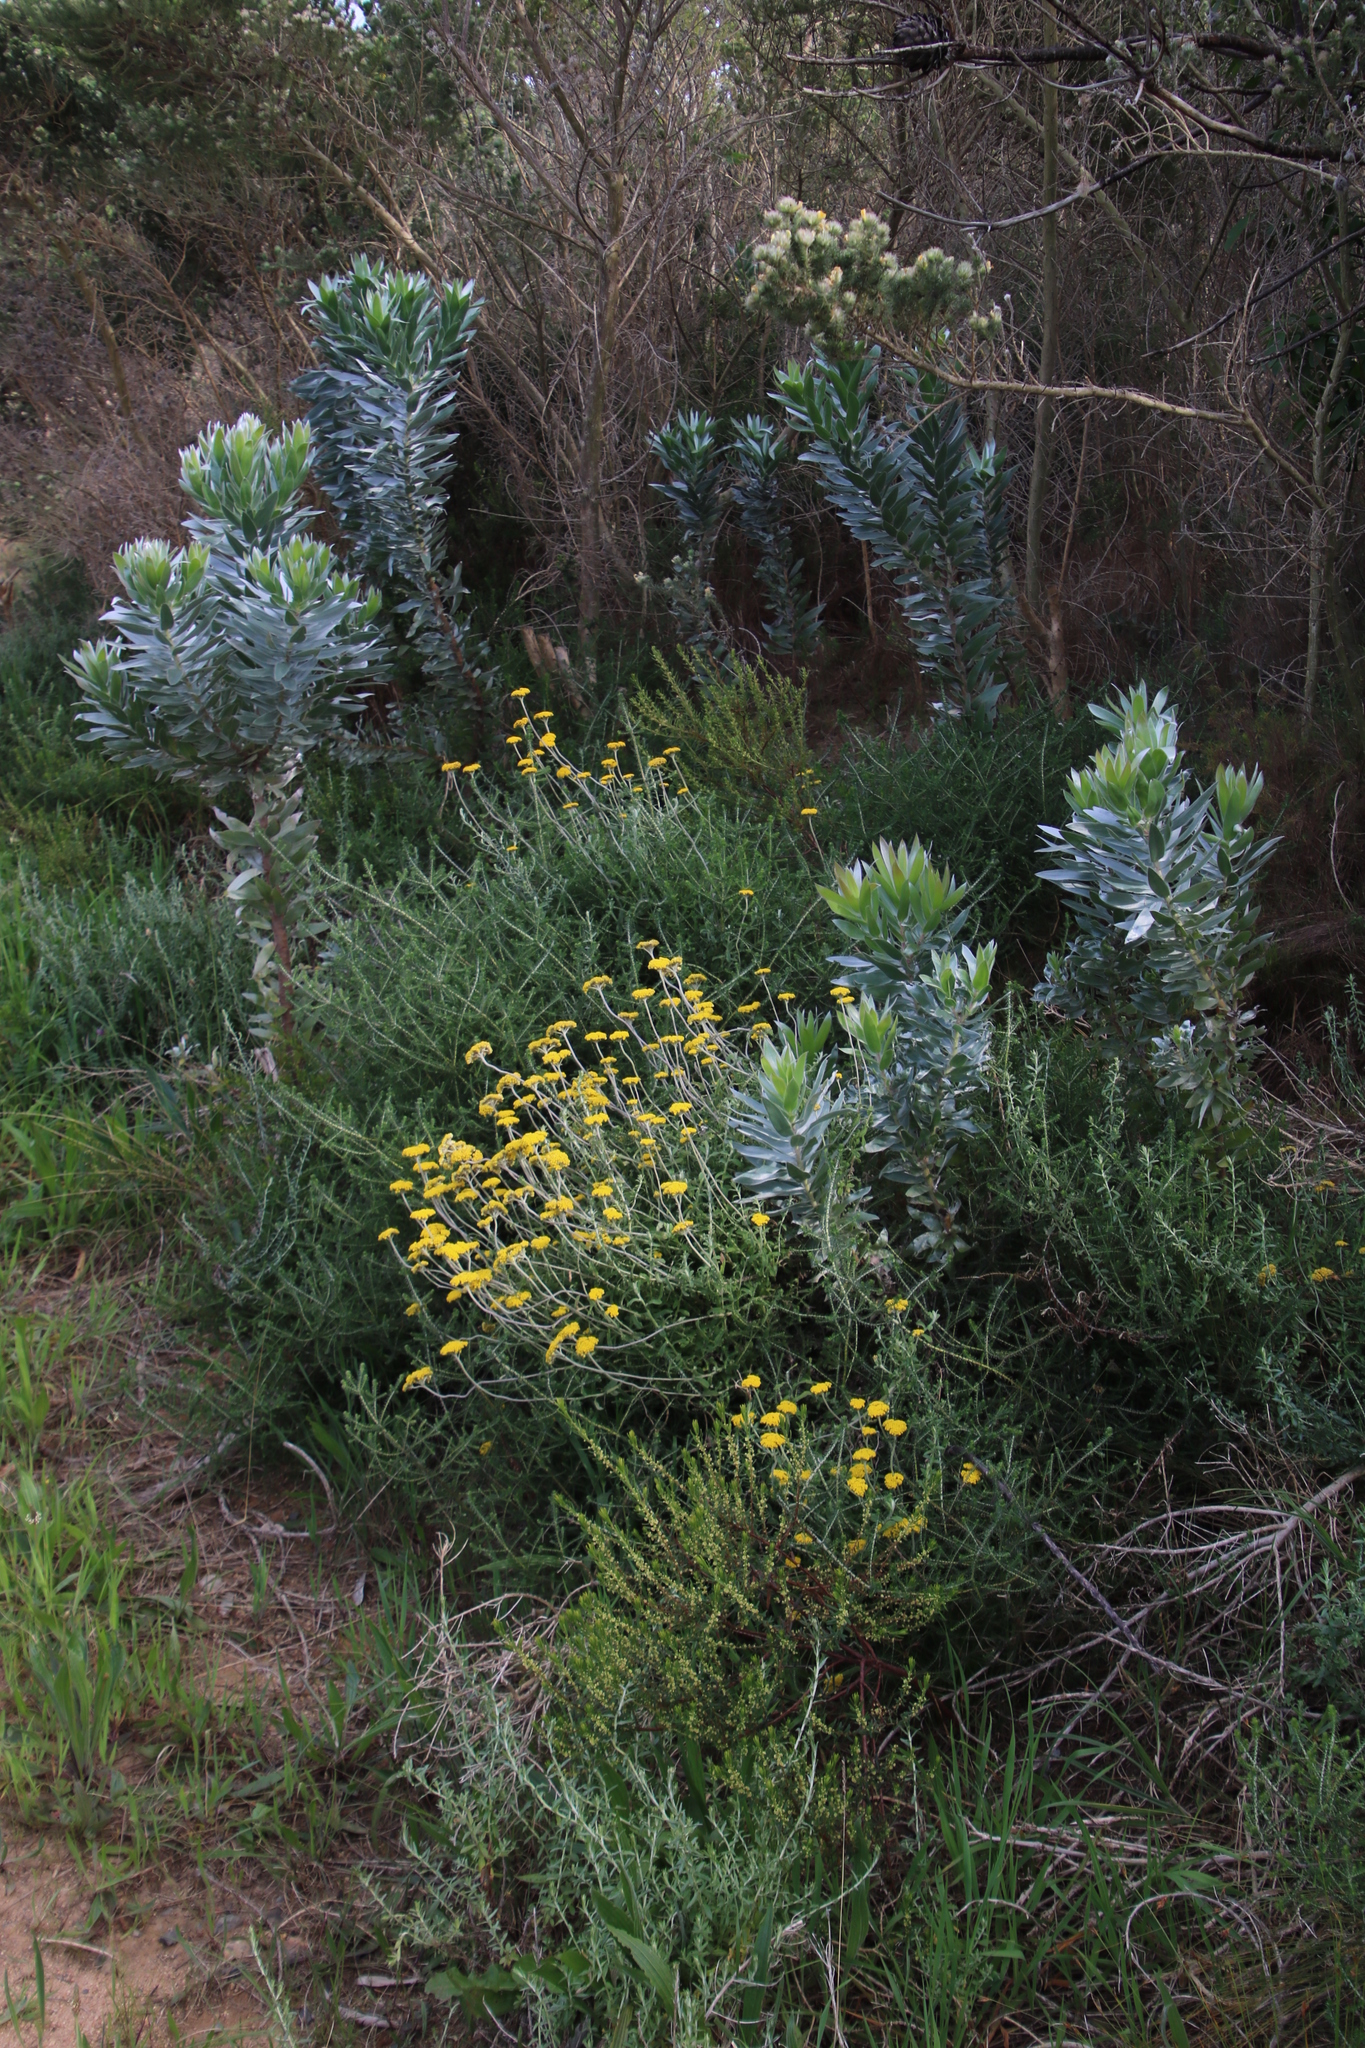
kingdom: Plantae
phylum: Tracheophyta
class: Magnoliopsida
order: Asterales
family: Asteraceae
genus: Helichrysum
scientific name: Helichrysum cymosum
